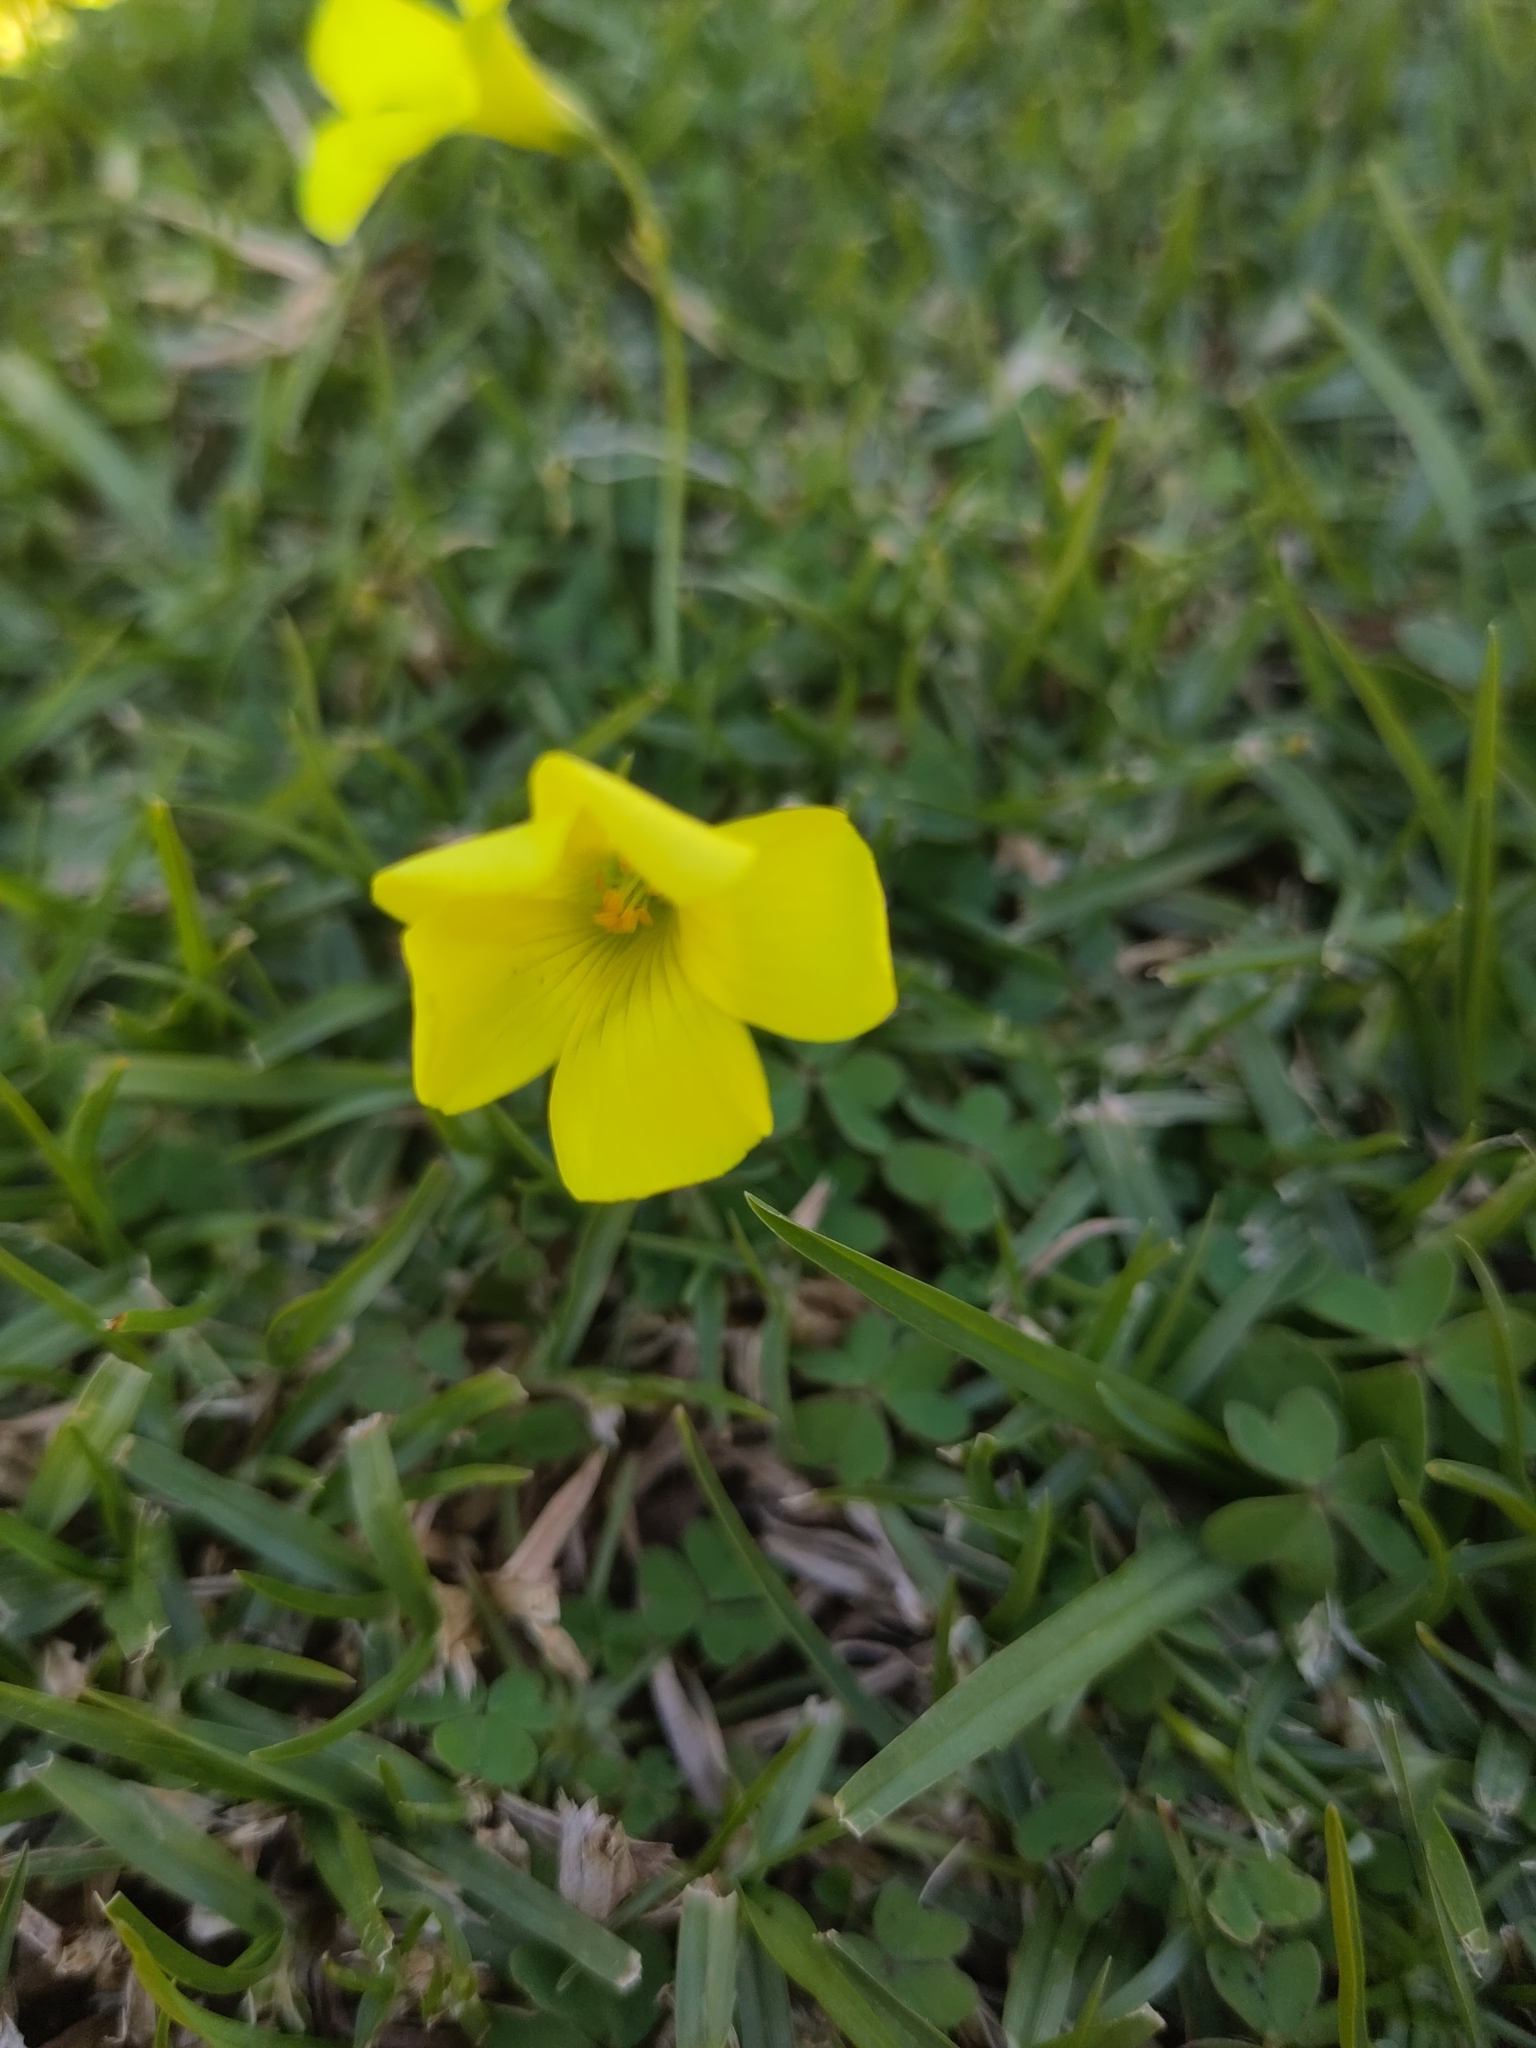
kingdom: Plantae
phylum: Tracheophyta
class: Magnoliopsida
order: Oxalidales
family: Oxalidaceae
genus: Oxalis
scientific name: Oxalis pes-caprae
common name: Bermuda-buttercup
